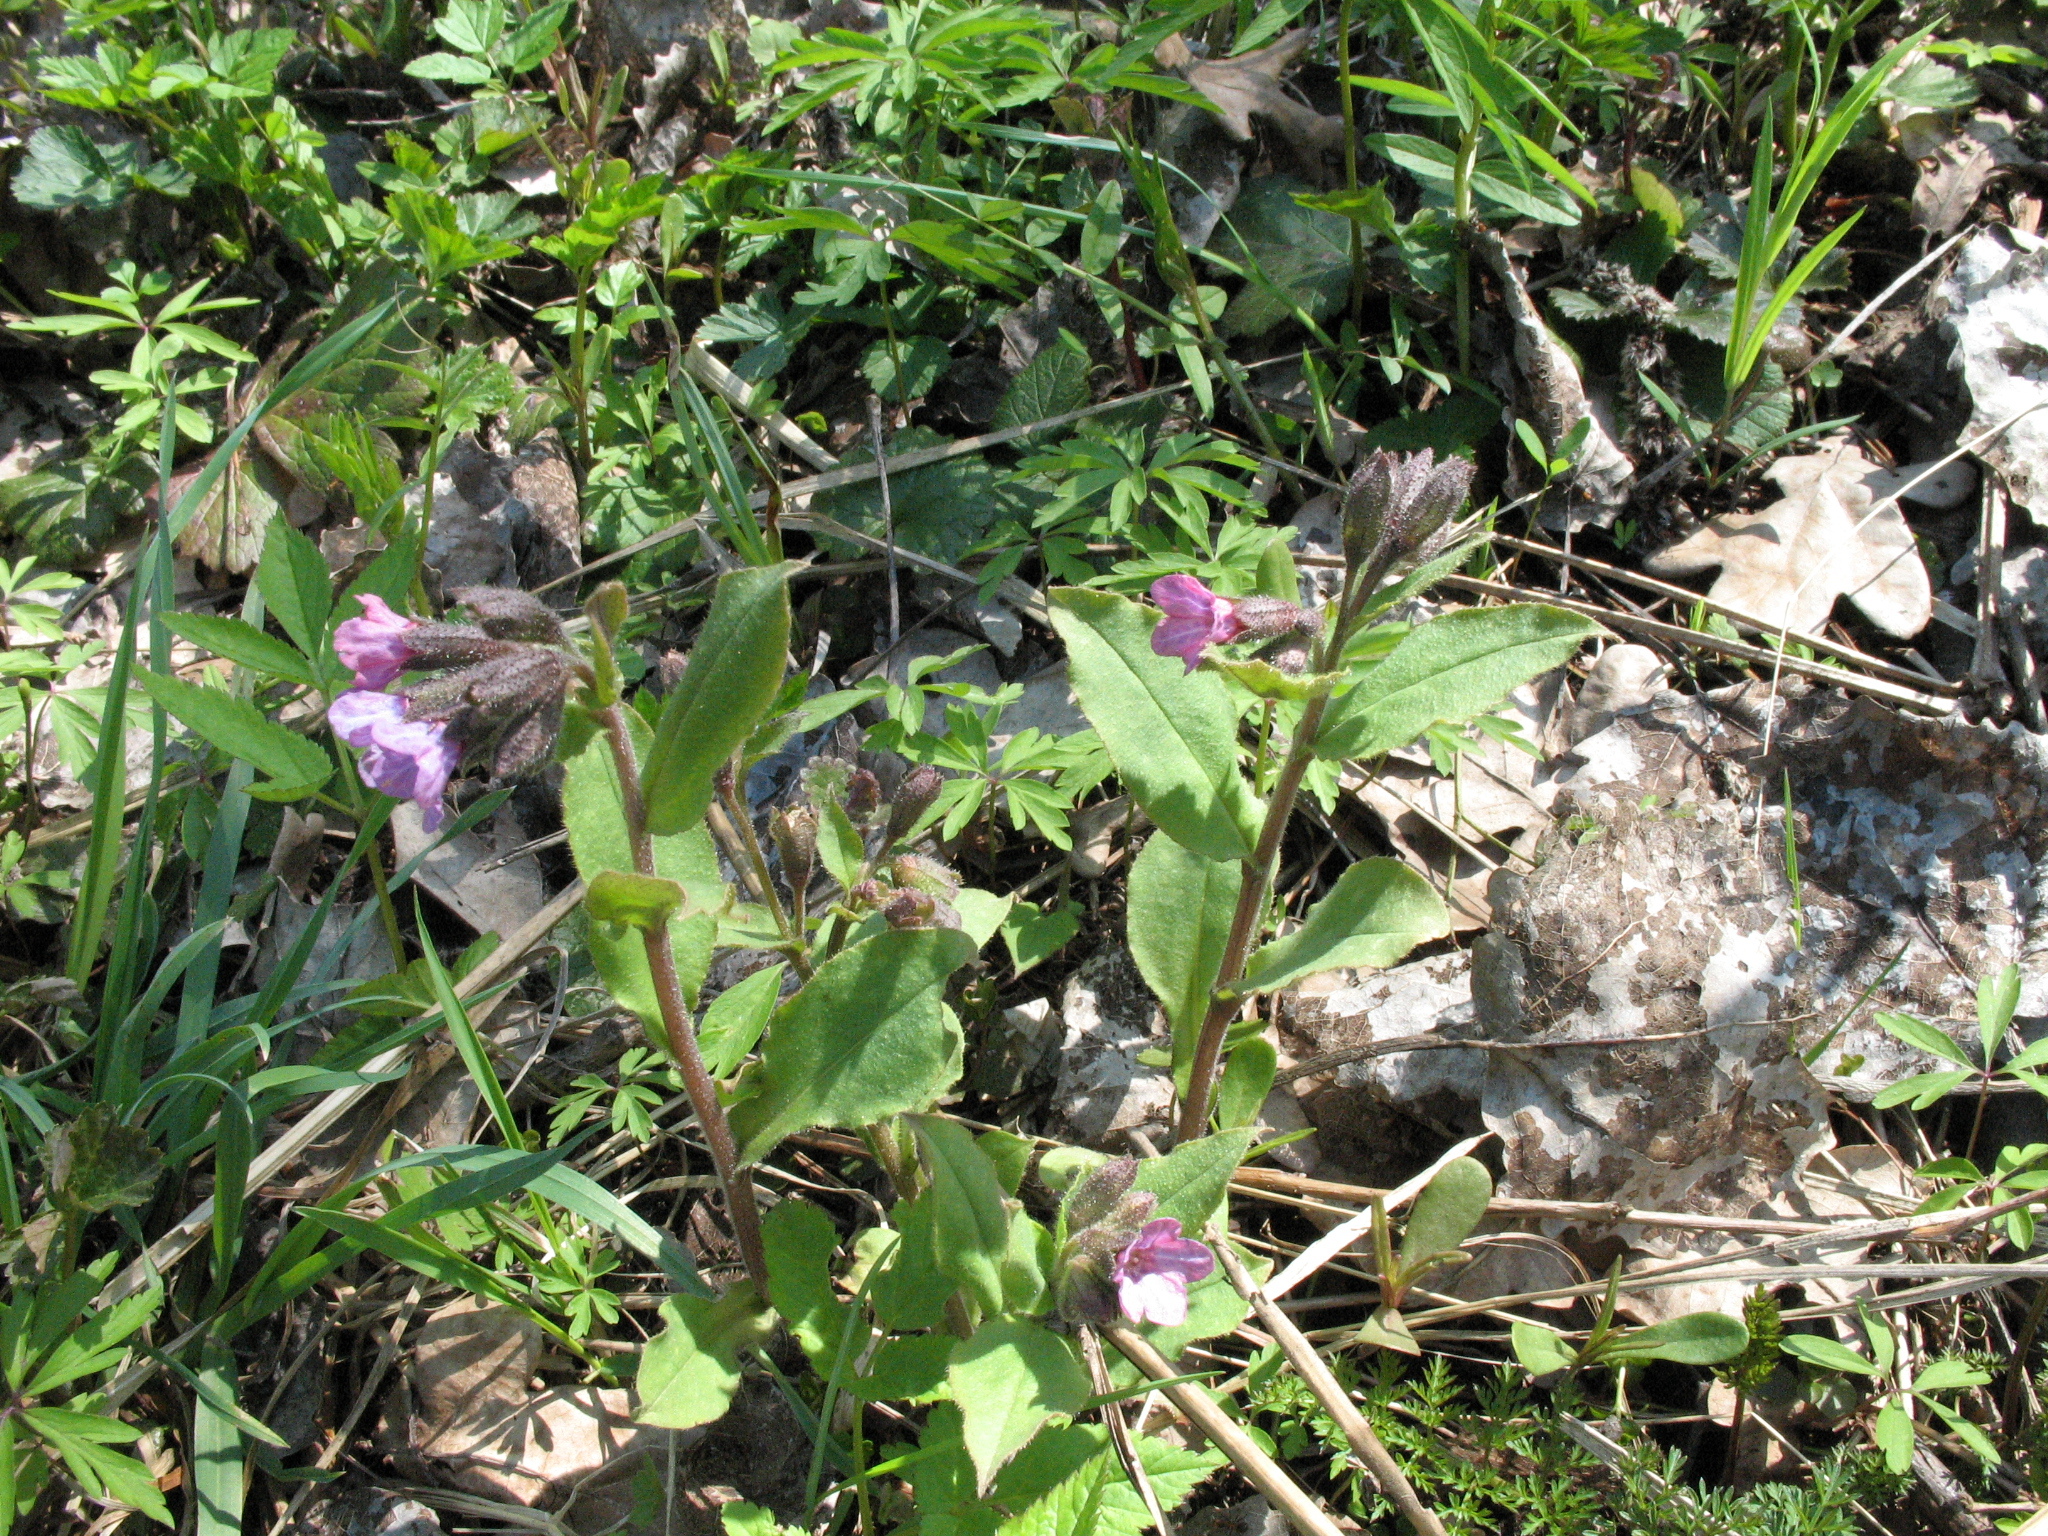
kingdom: Plantae
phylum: Tracheophyta
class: Magnoliopsida
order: Boraginales
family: Boraginaceae
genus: Pulmonaria
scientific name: Pulmonaria obscura
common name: Suffolk lungwort
